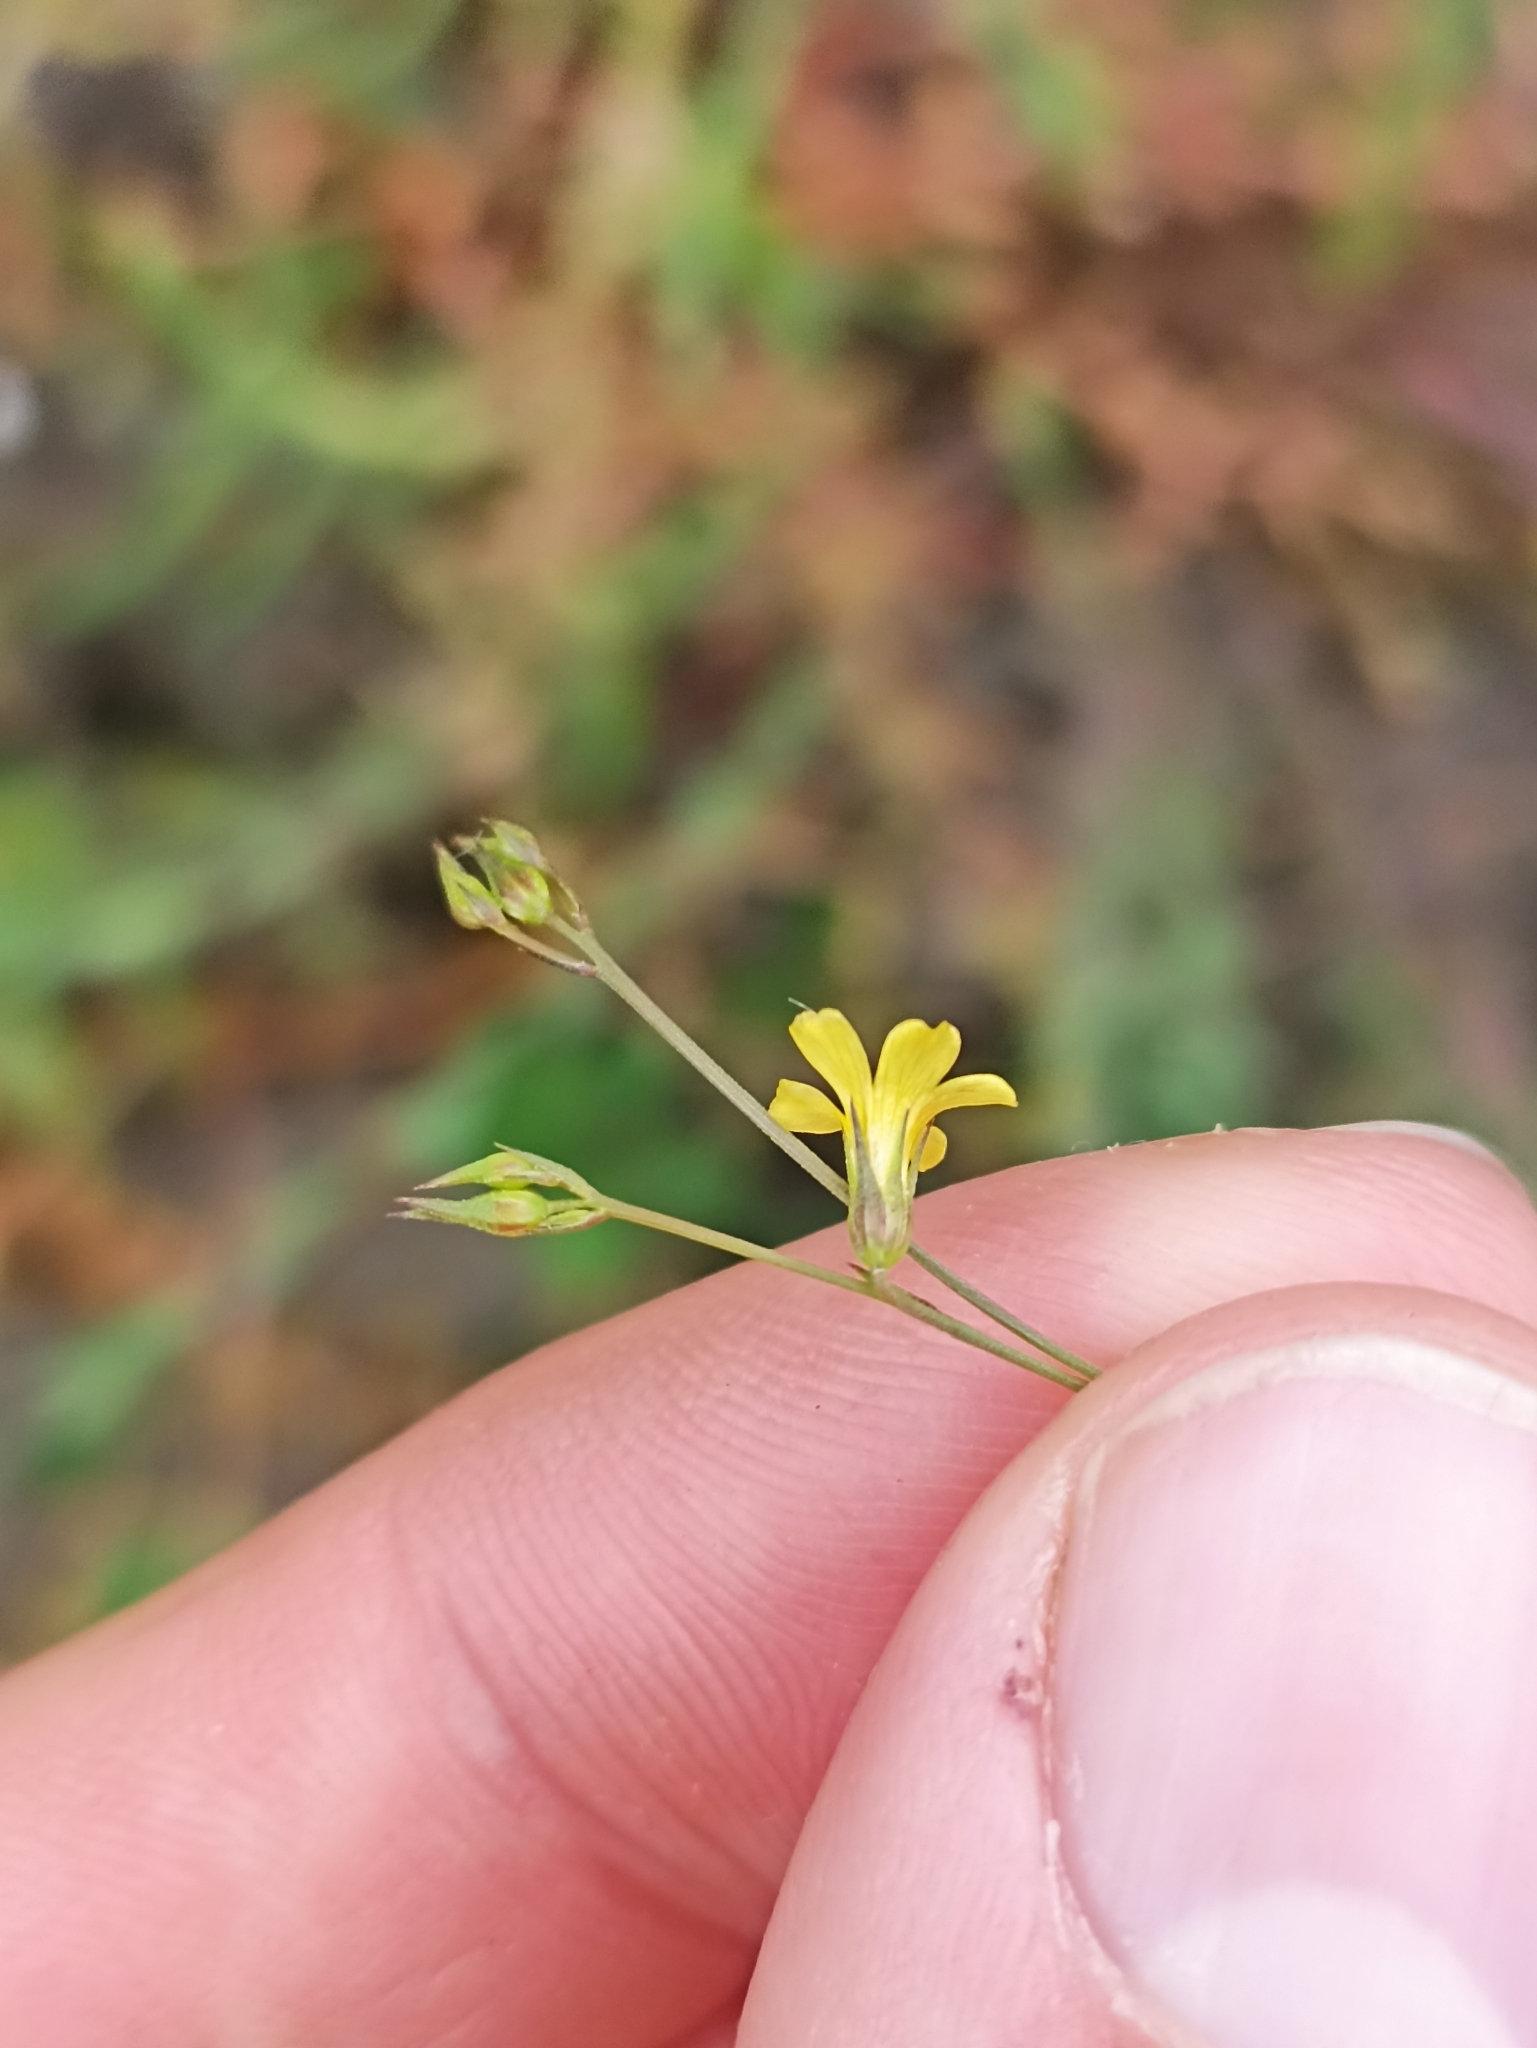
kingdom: Plantae
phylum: Tracheophyta
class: Magnoliopsida
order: Malpighiales
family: Linaceae
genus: Linum
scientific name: Linum trigynum
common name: French flax
